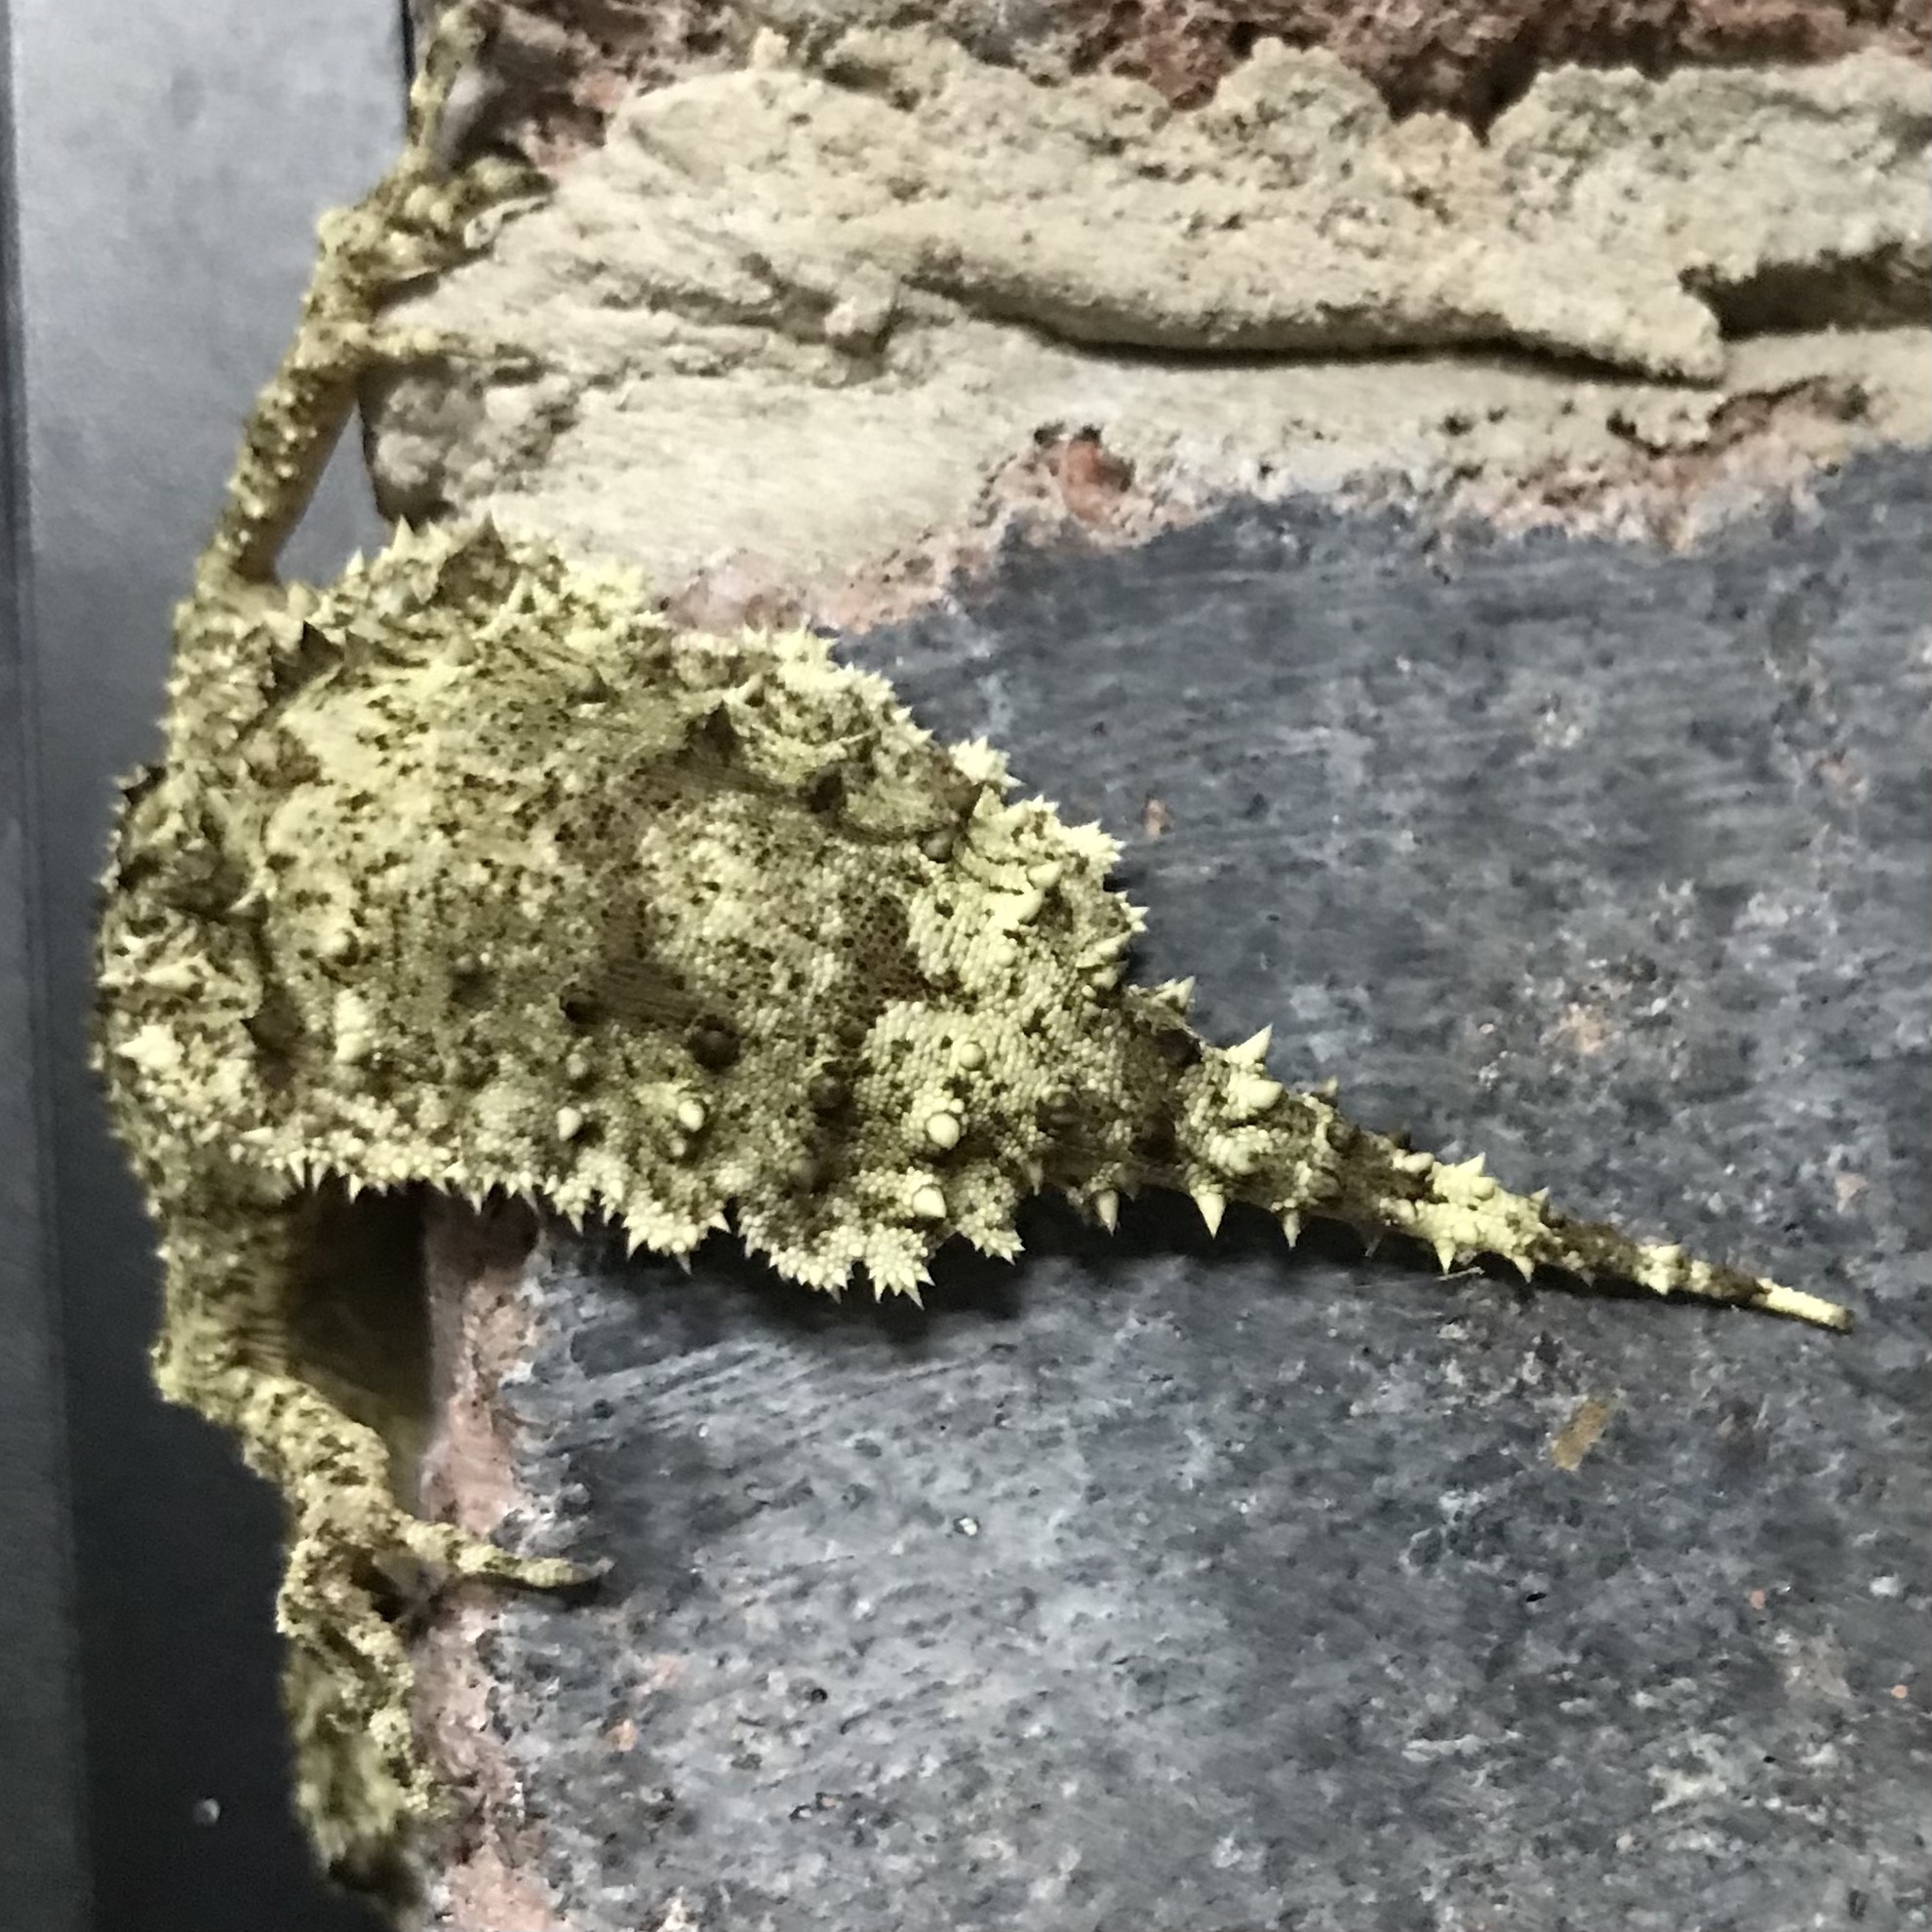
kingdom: Animalia
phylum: Chordata
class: Squamata
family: Carphodactylidae
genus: Saltuarius
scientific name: Saltuarius moritzi
